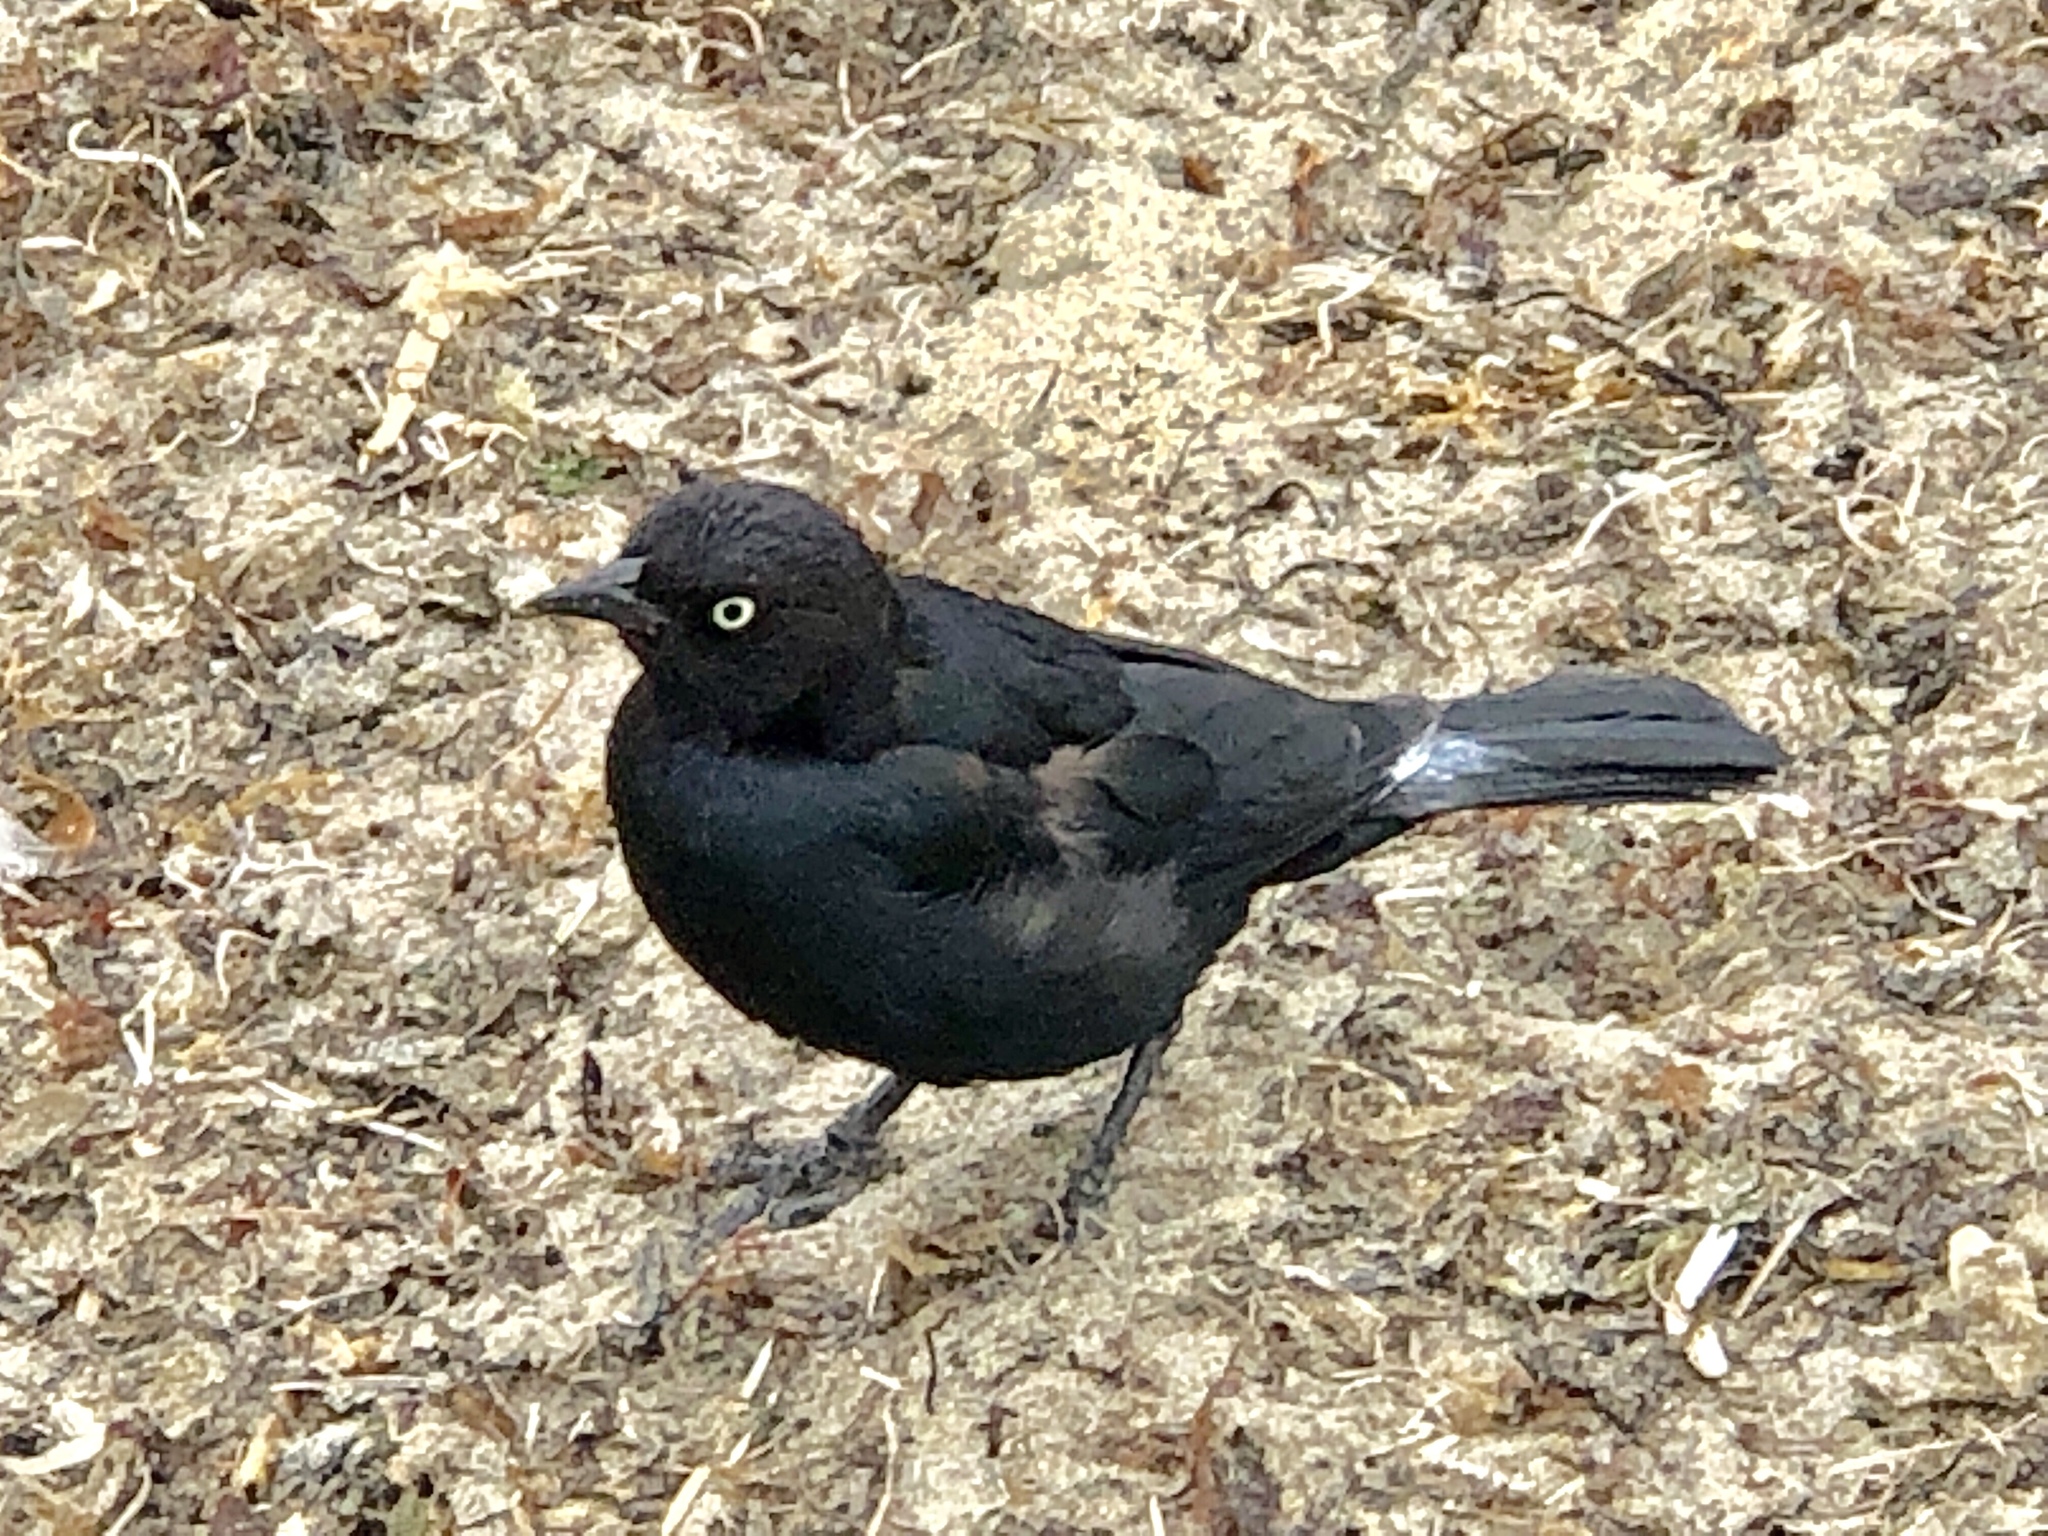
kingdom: Animalia
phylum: Chordata
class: Aves
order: Passeriformes
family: Icteridae
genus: Euphagus
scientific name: Euphagus cyanocephalus
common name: Brewer's blackbird
